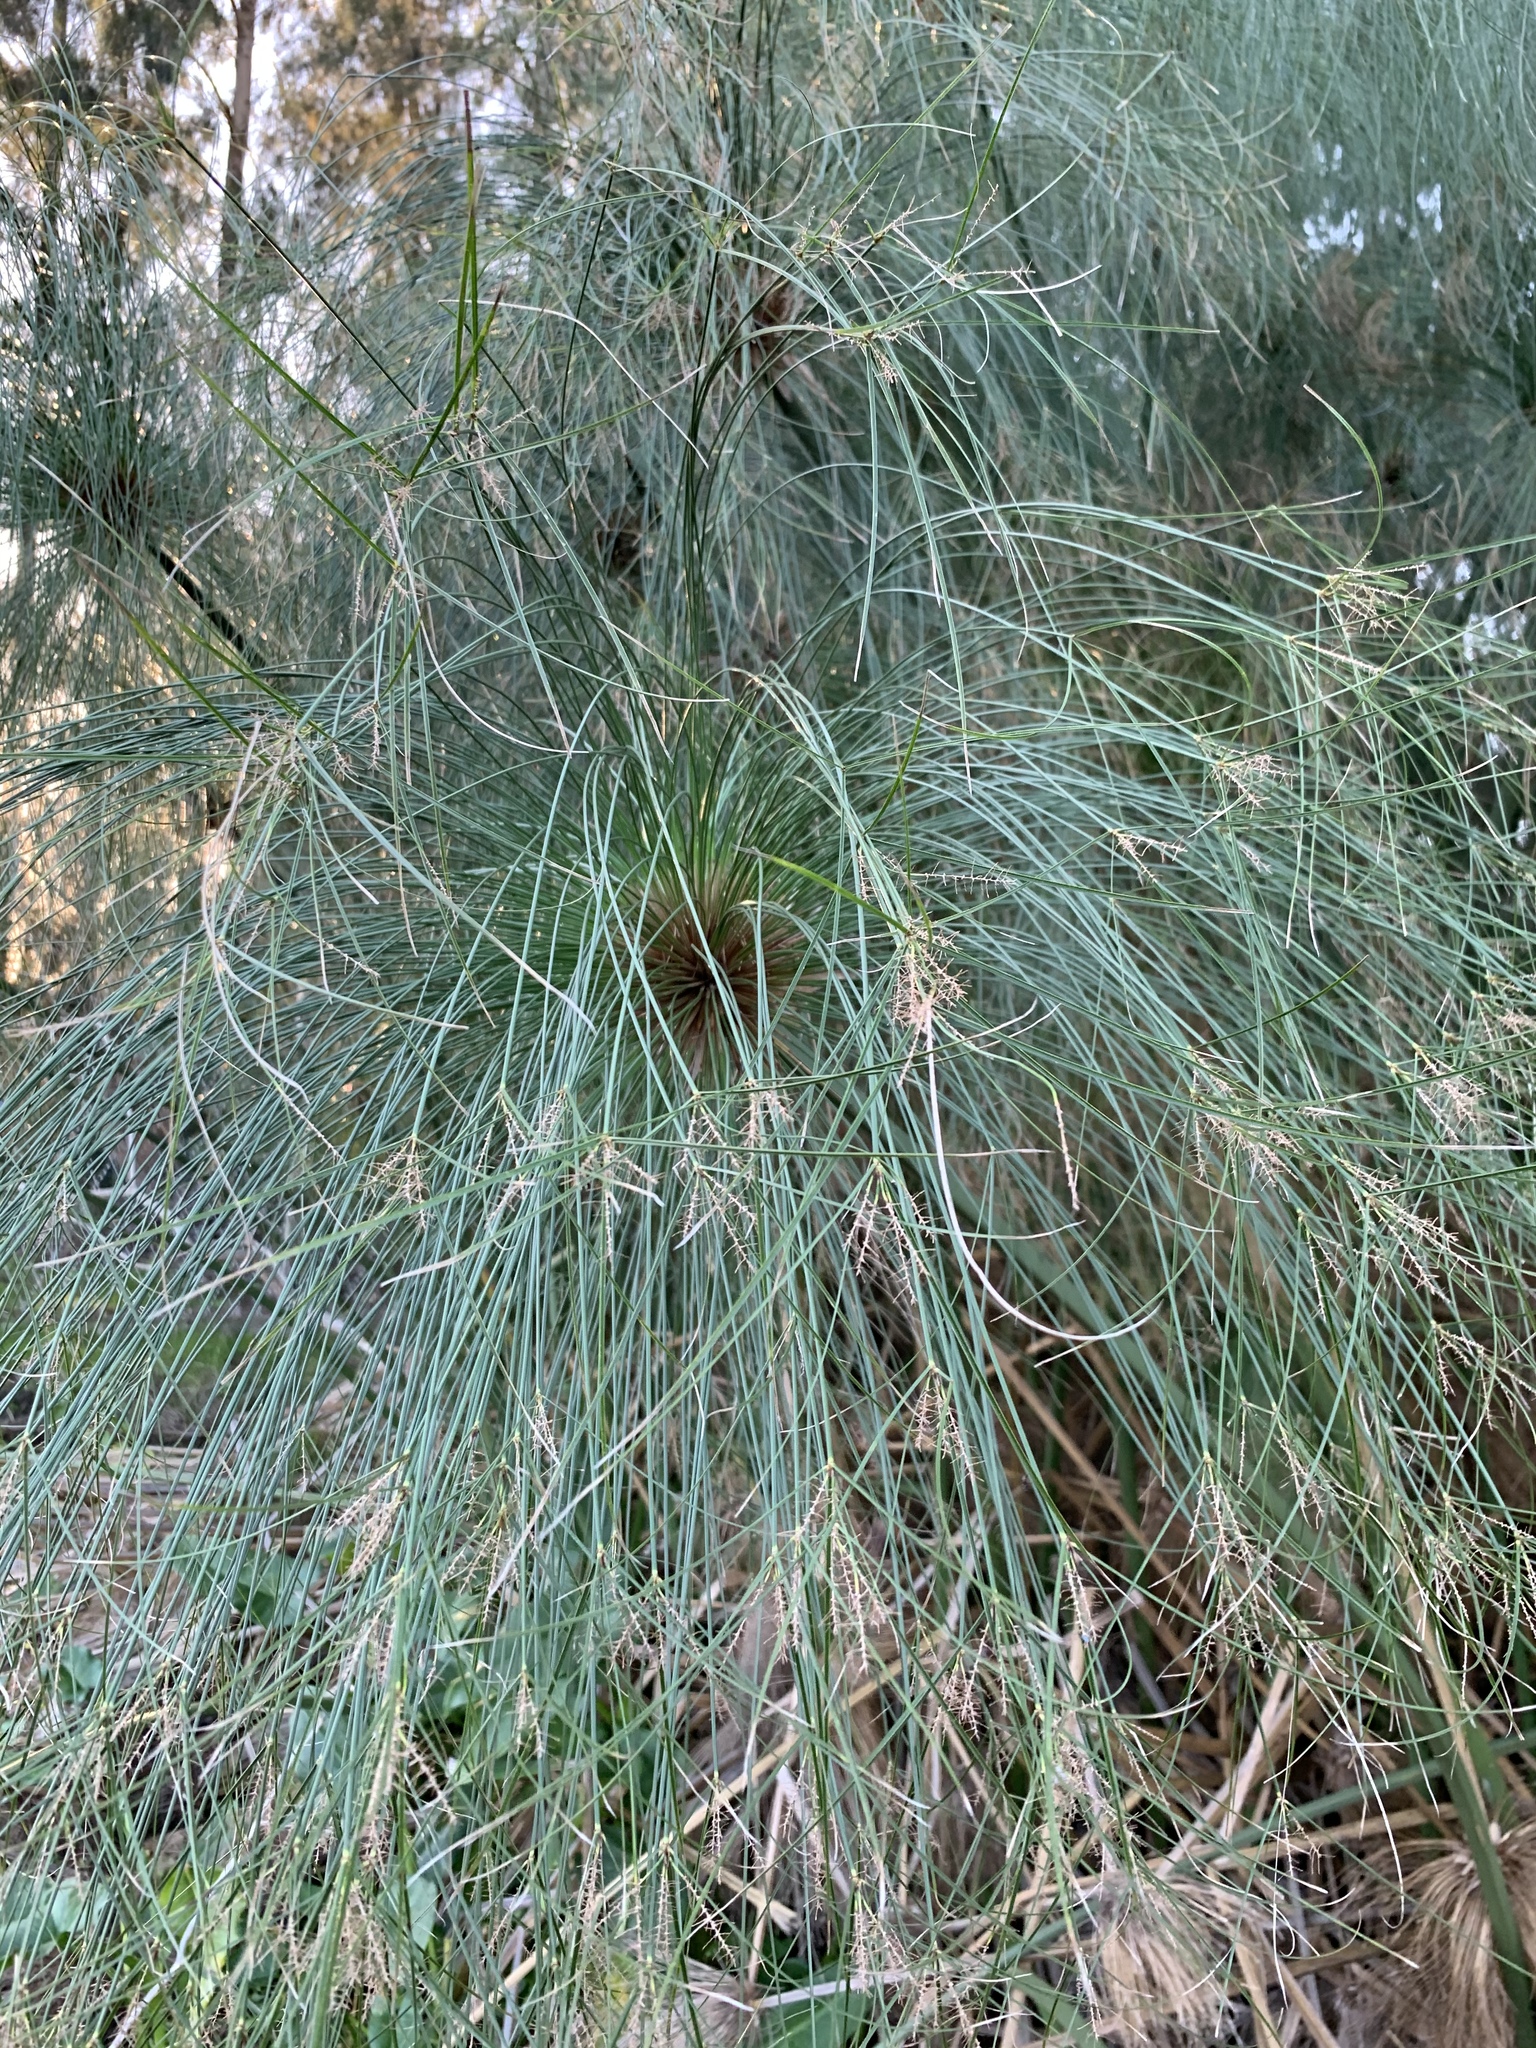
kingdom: Plantae
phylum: Tracheophyta
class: Liliopsida
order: Poales
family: Cyperaceae
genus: Cyperus
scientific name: Cyperus papyrus
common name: Papyrus
